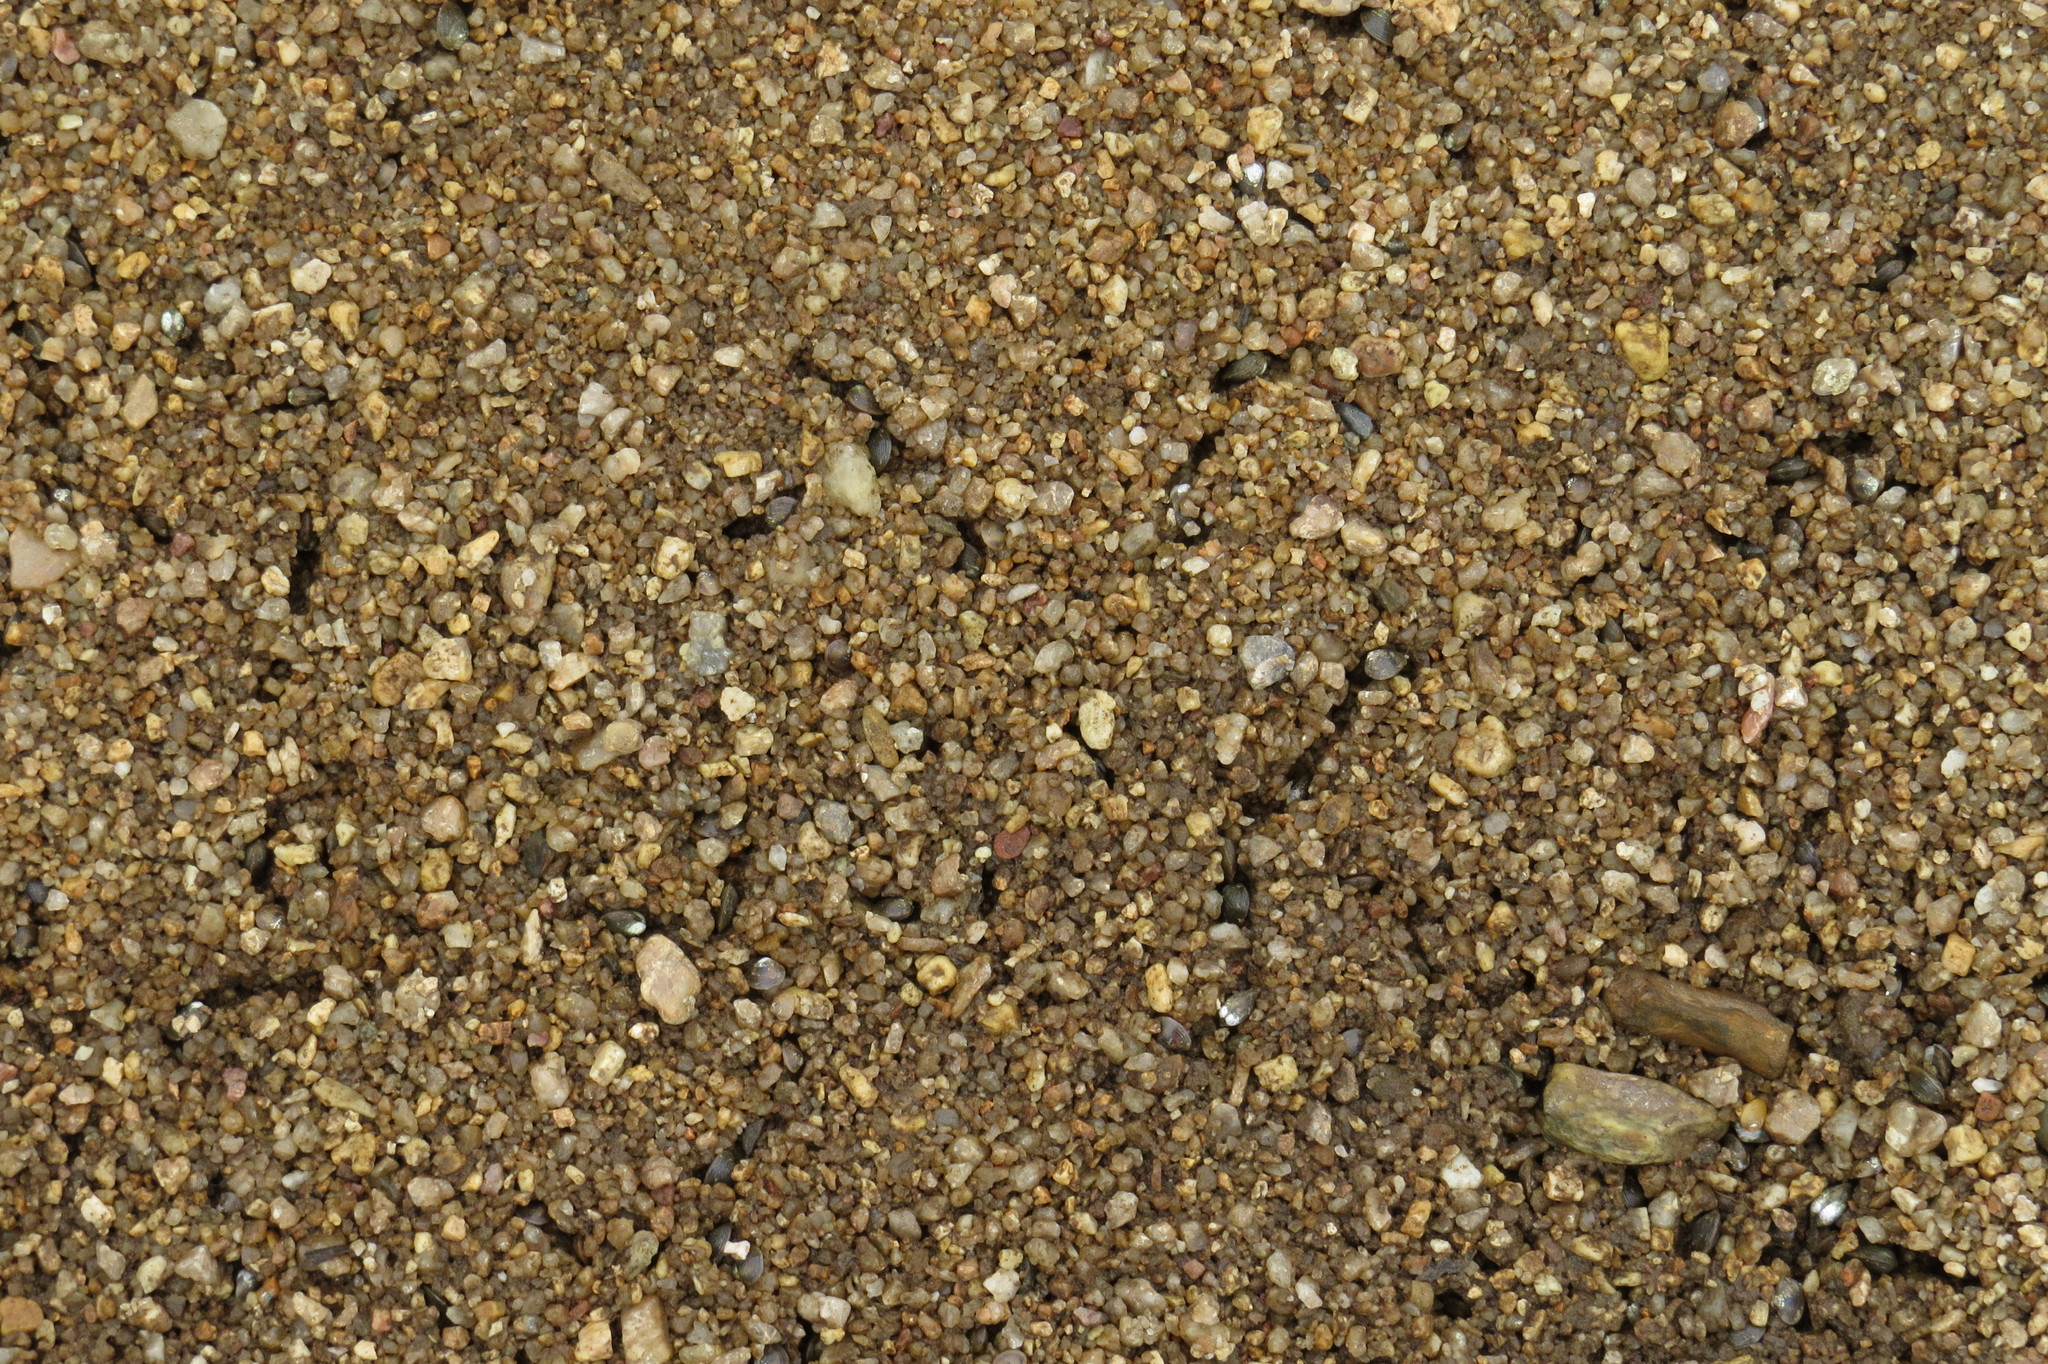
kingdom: Animalia
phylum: Mollusca
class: Bivalvia
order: Venerida
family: Cyrenidae
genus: Corbicula
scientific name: Corbicula australis
